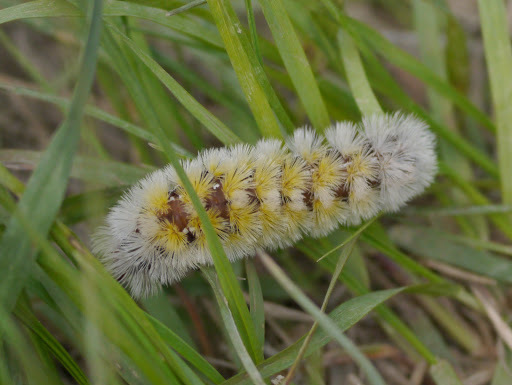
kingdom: Animalia
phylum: Arthropoda
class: Insecta
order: Lepidoptera
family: Erebidae
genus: Ctenucha
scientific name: Ctenucha virginica
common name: Virginia ctenucha moth
